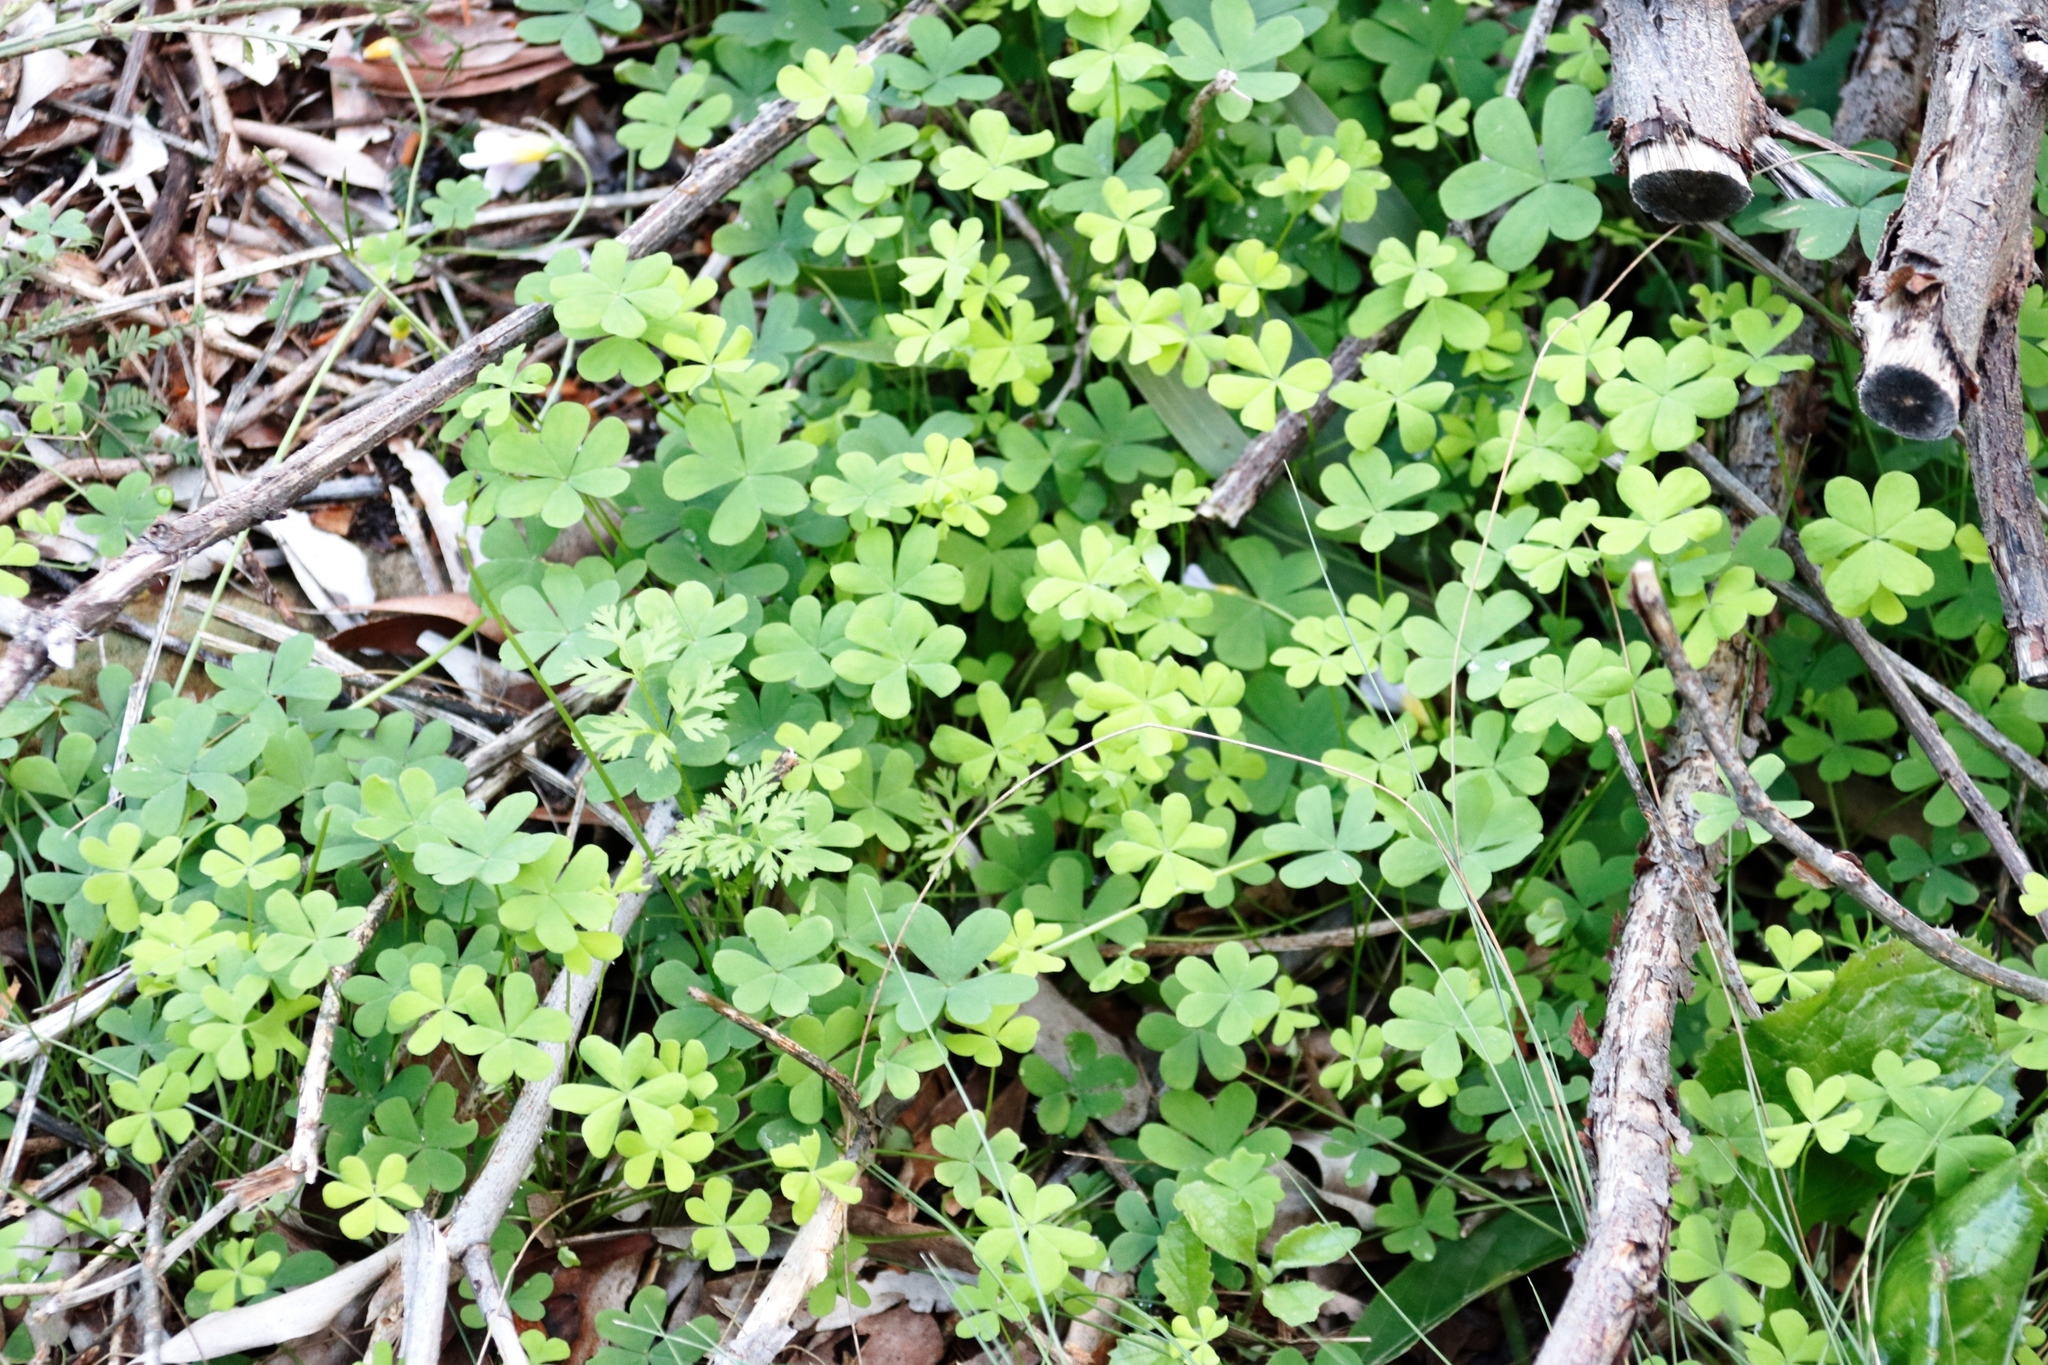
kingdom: Plantae
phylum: Tracheophyta
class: Magnoliopsida
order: Oxalidales
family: Oxalidaceae
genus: Oxalis
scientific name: Oxalis pes-caprae
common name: Bermuda-buttercup
